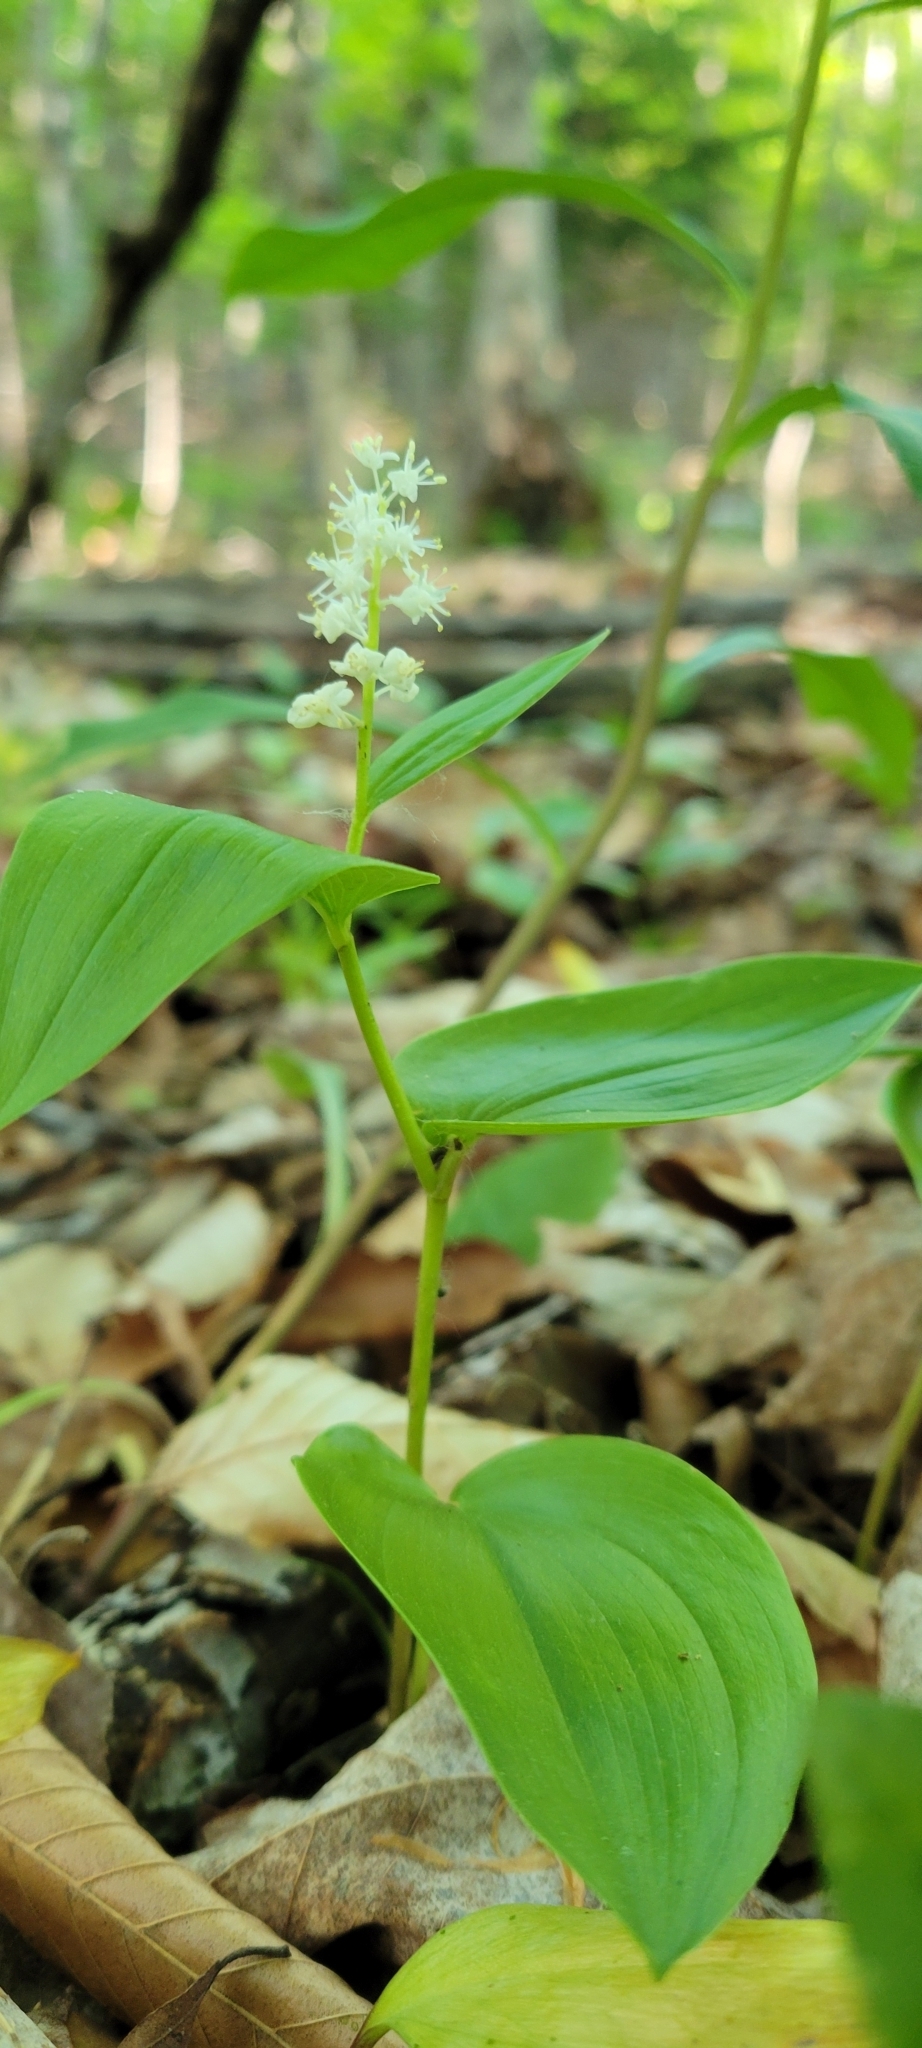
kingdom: Plantae
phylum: Tracheophyta
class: Liliopsida
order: Asparagales
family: Asparagaceae
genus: Maianthemum
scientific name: Maianthemum canadense
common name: False lily-of-the-valley
